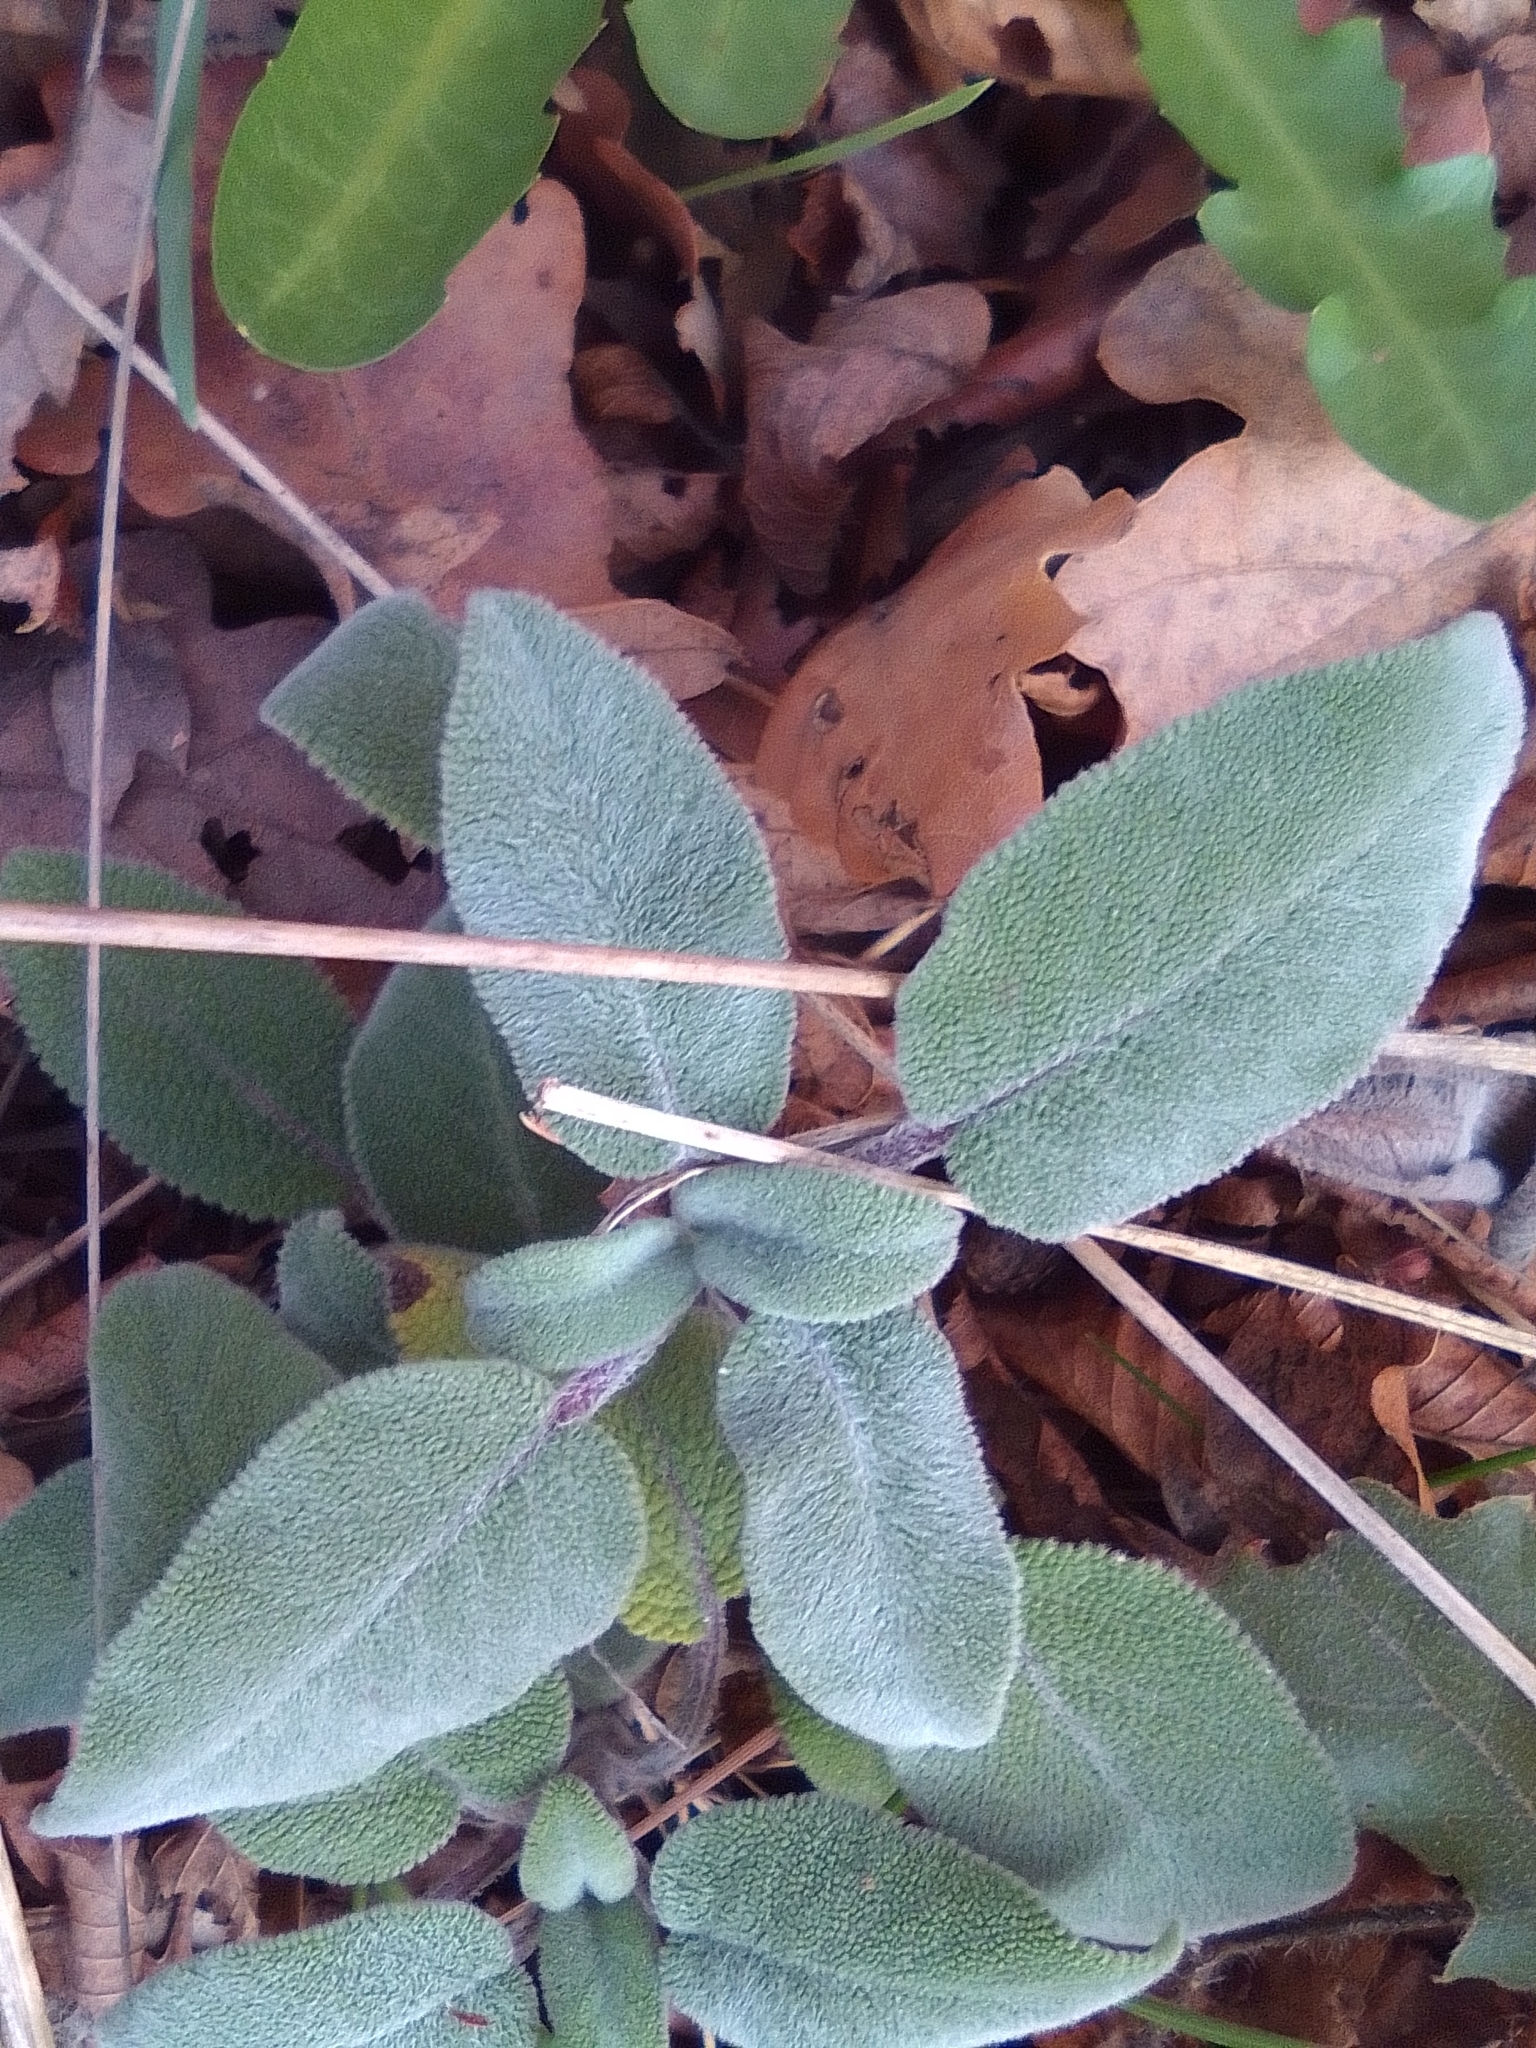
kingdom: Plantae
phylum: Tracheophyta
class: Magnoliopsida
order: Lamiales
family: Lamiaceae
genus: Salvia
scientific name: Salvia tomentosa
